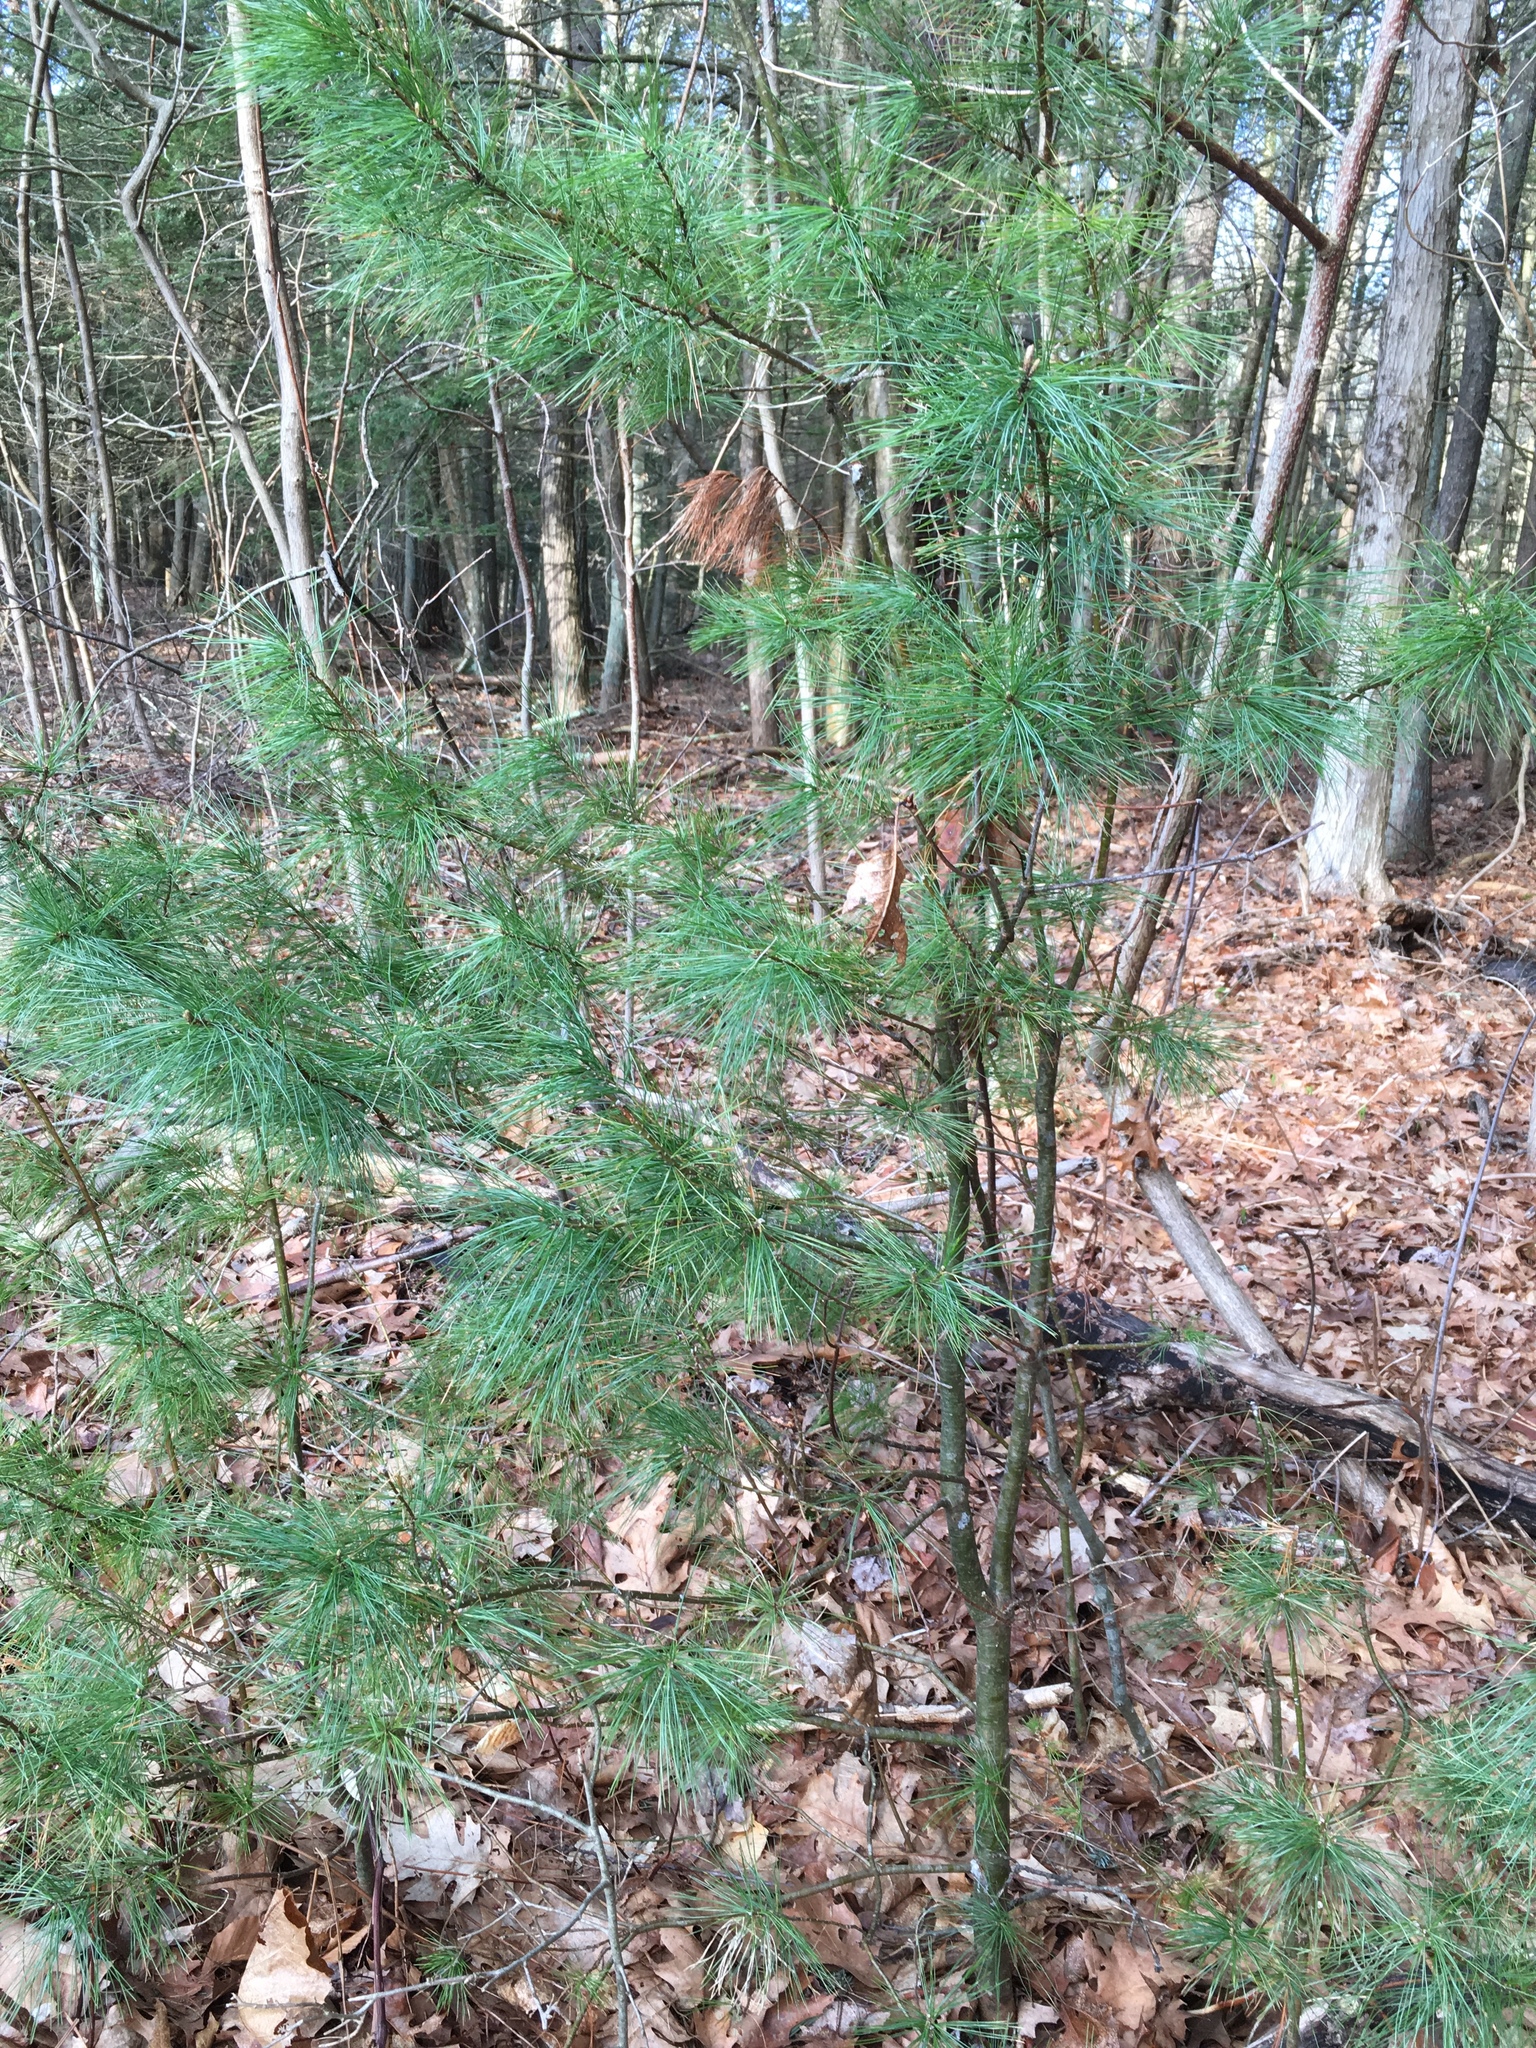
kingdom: Plantae
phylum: Tracheophyta
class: Pinopsida
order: Pinales
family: Pinaceae
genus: Pinus
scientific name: Pinus strobus
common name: Weymouth pine
